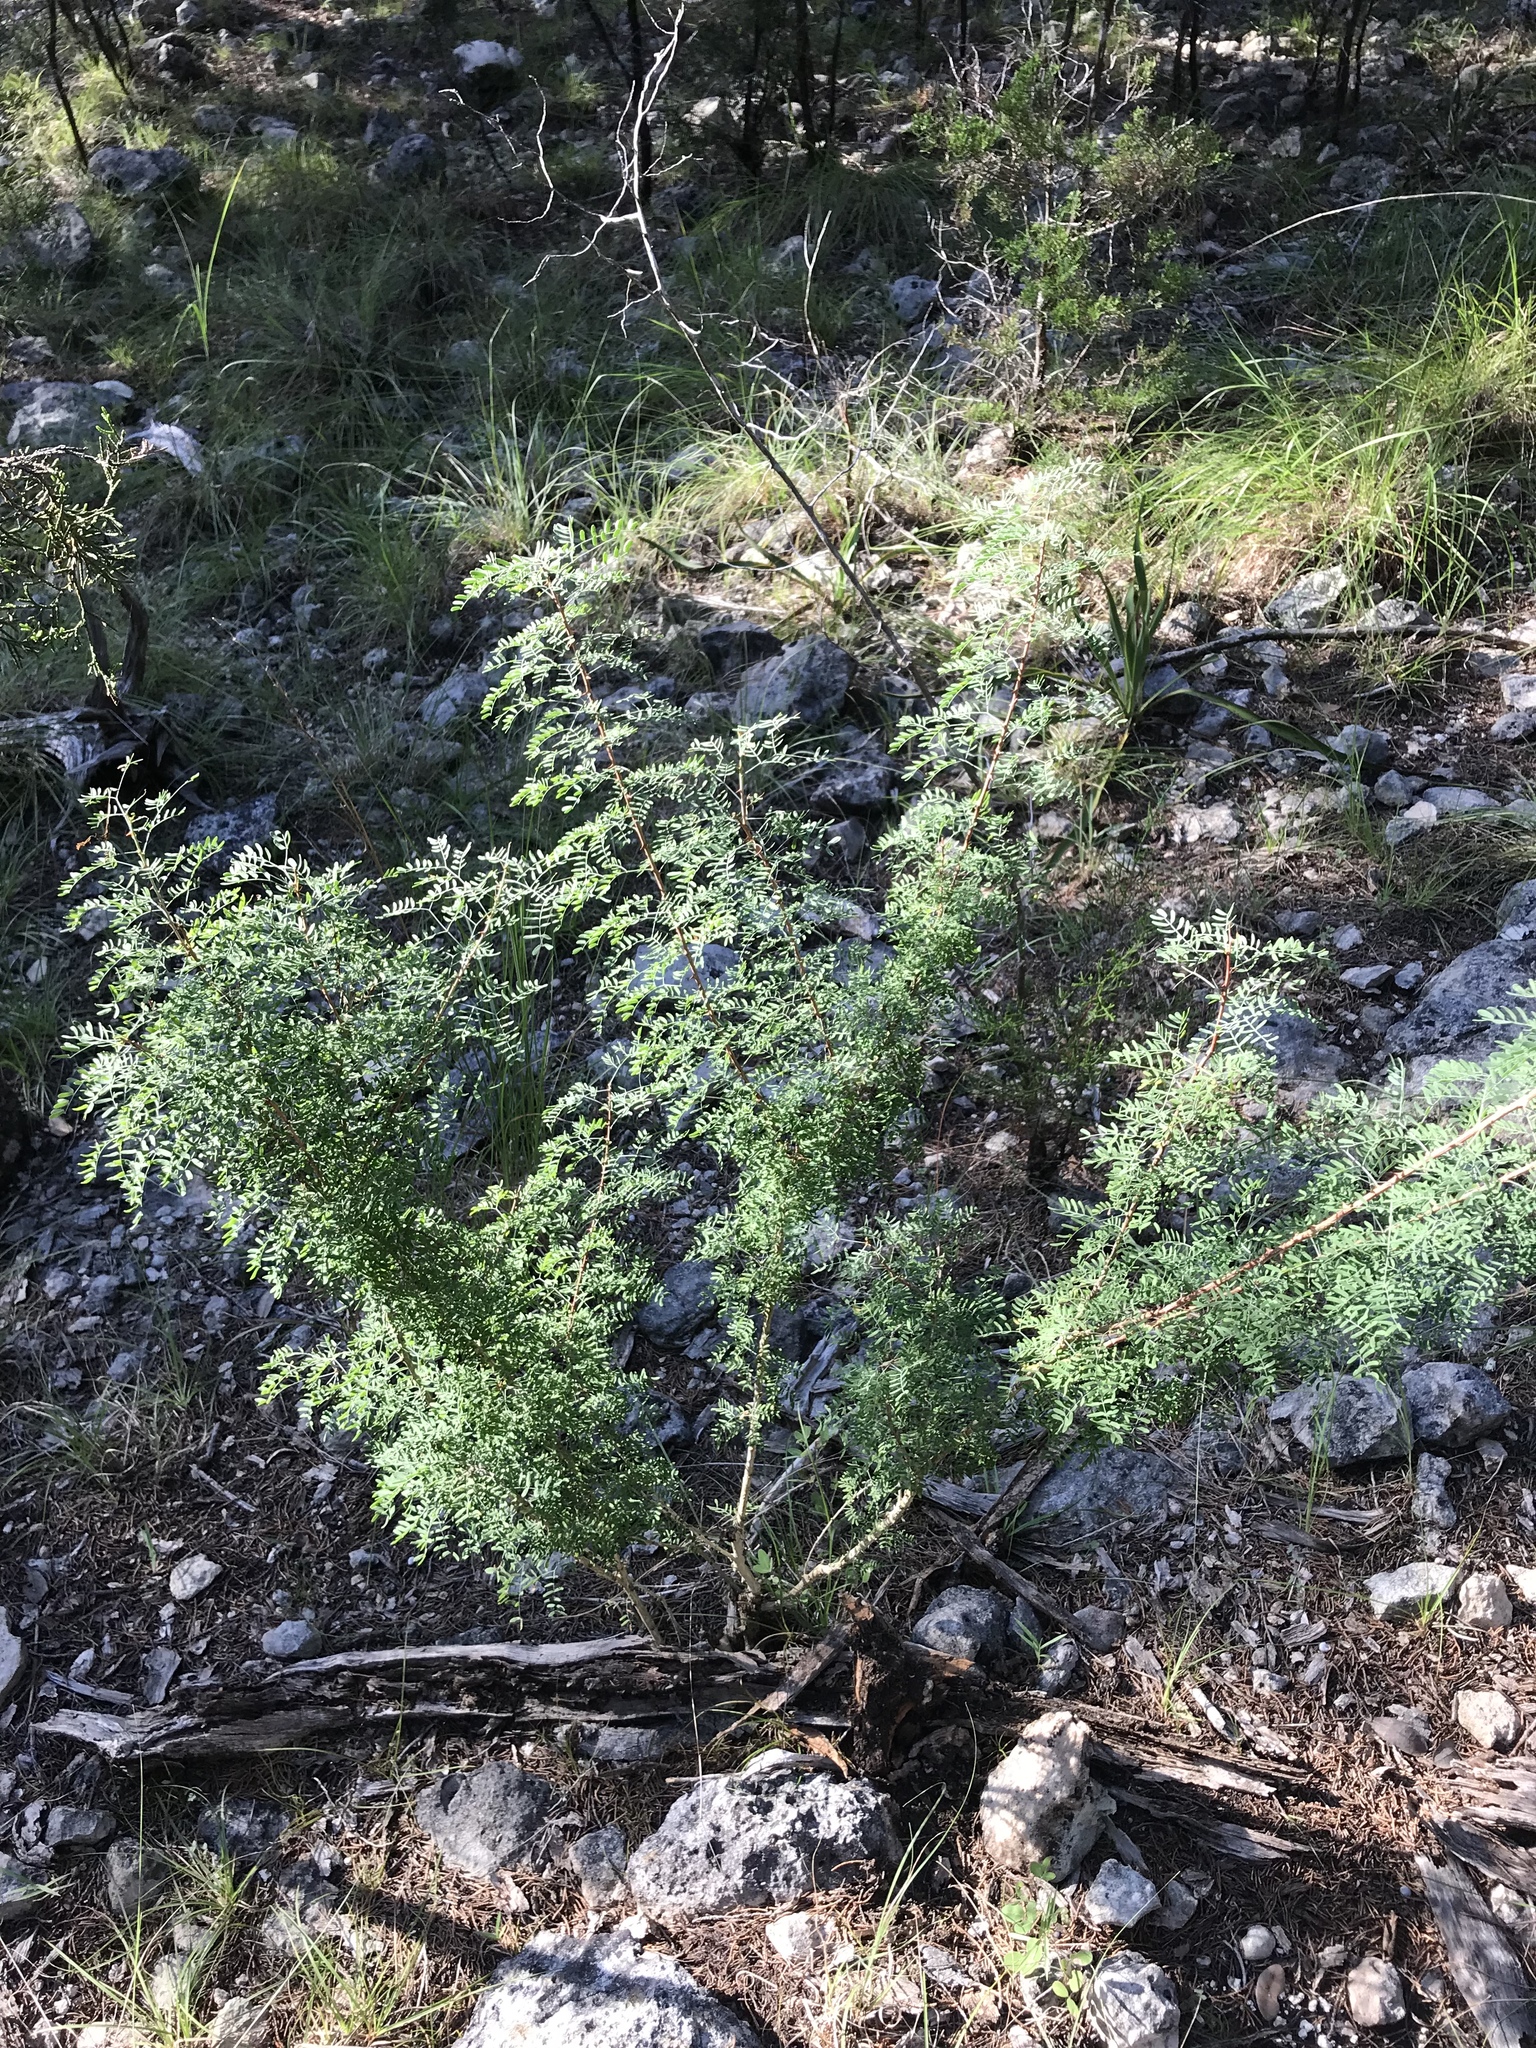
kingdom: Plantae
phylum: Tracheophyta
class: Magnoliopsida
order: Fabales
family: Fabaceae
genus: Mimosa
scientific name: Mimosa borealis
